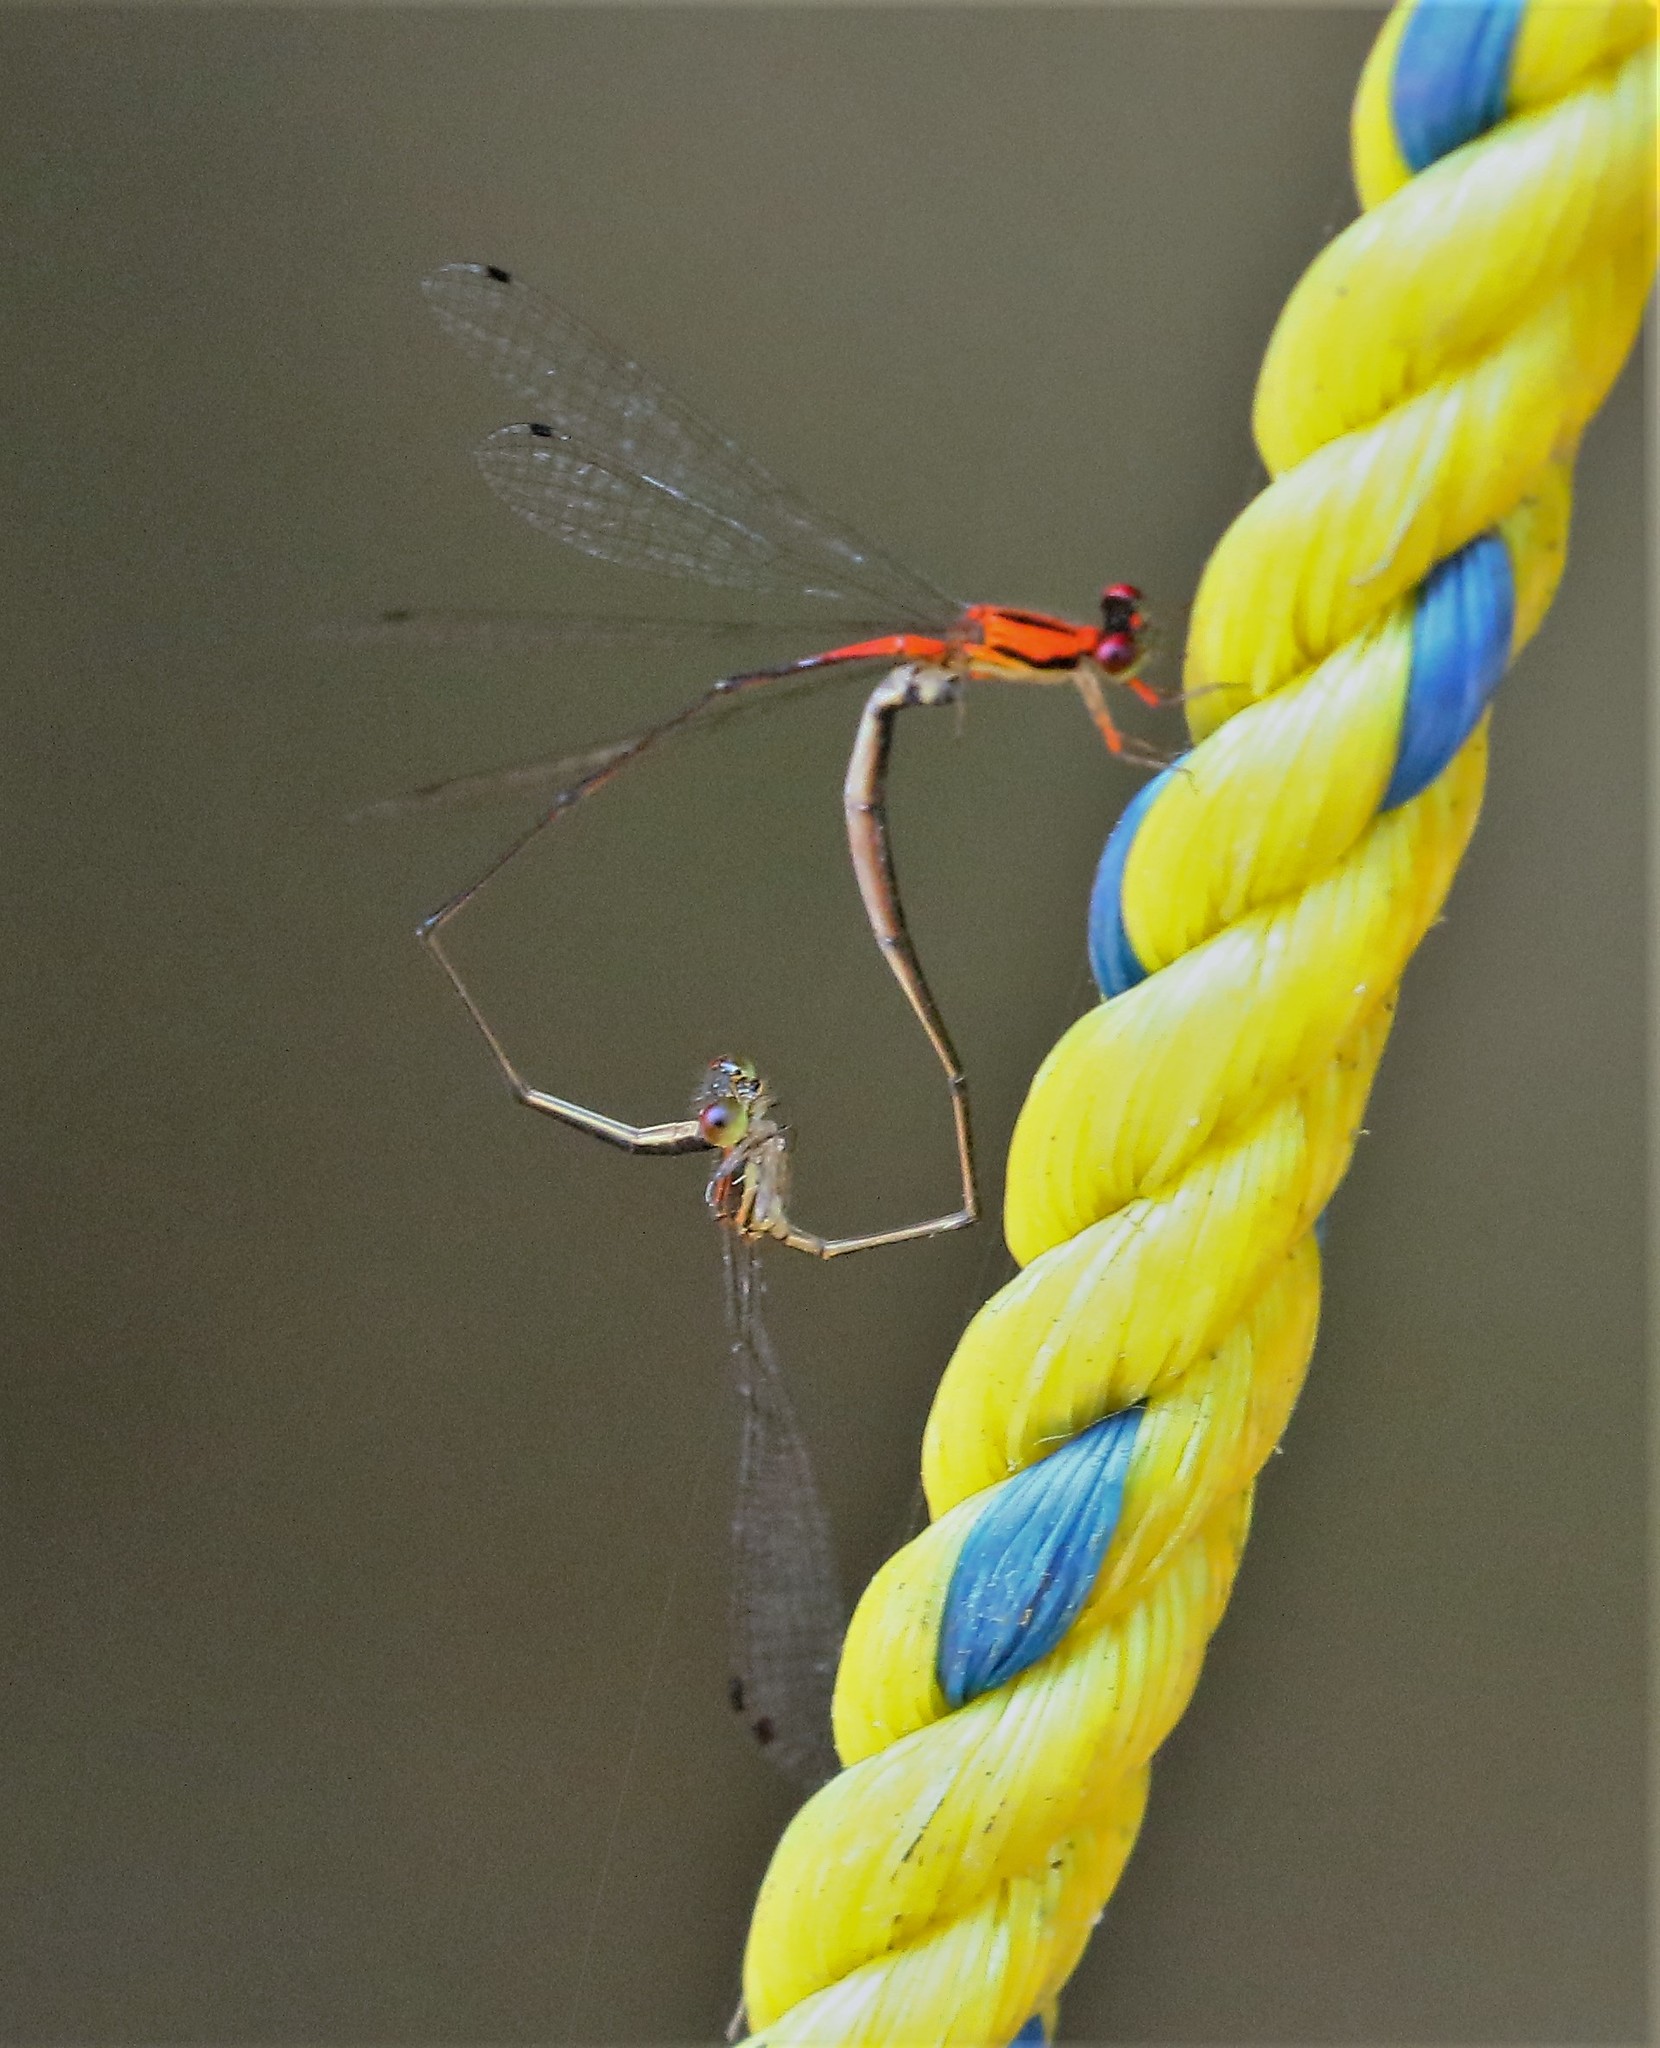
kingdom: Animalia
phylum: Arthropoda
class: Insecta
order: Odonata
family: Coenagrionidae
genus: Protoneura
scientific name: Protoneura aurantiaca
